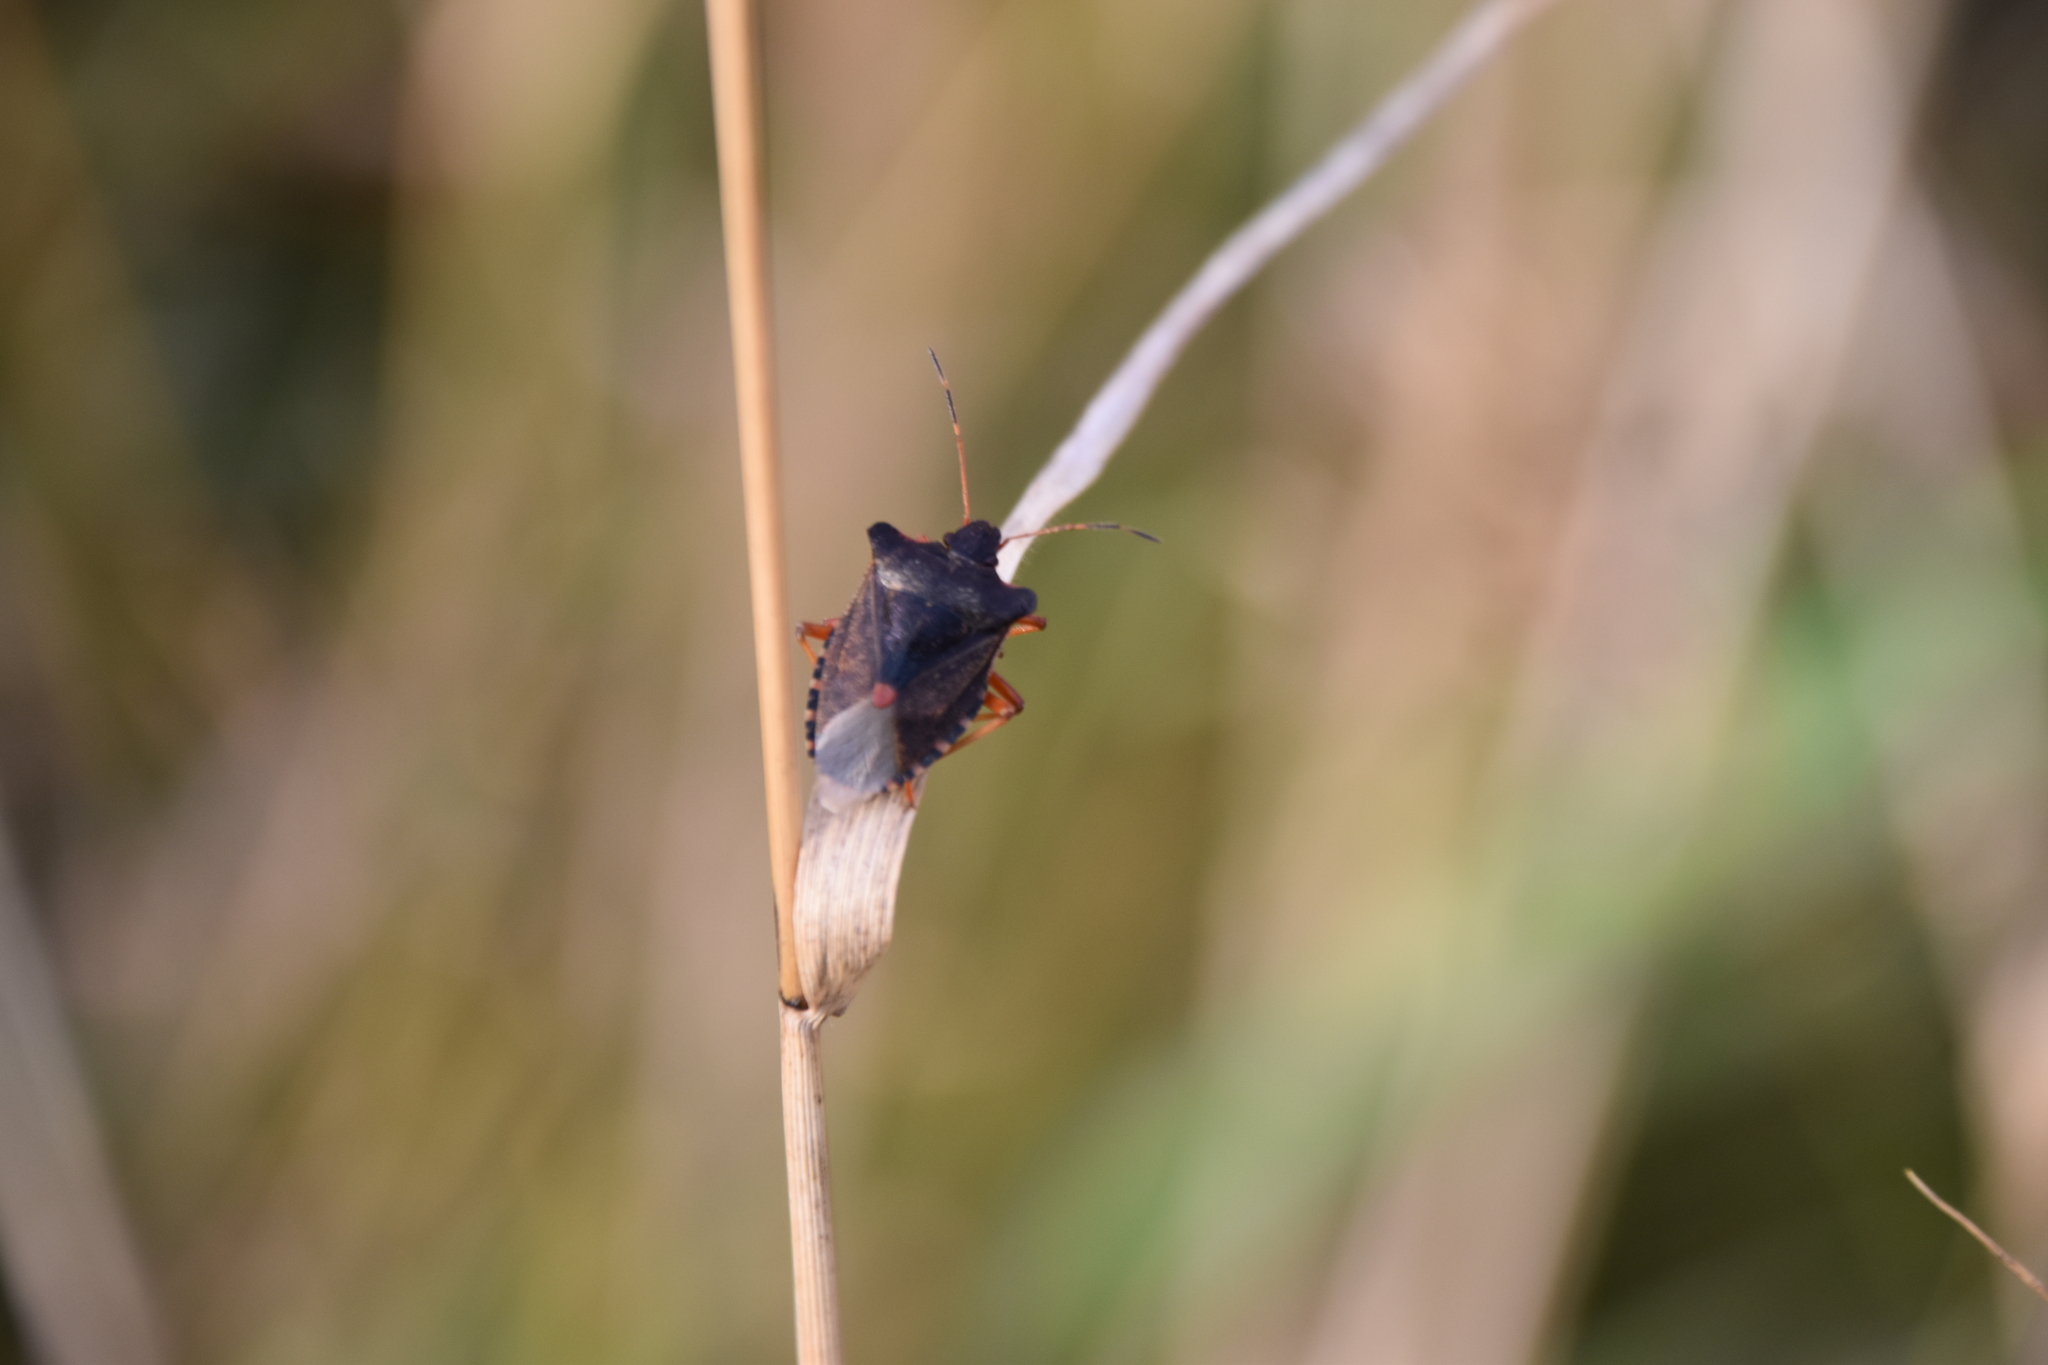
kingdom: Animalia
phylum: Arthropoda
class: Insecta
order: Hemiptera
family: Pentatomidae
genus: Pentatoma
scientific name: Pentatoma rufipes
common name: Forest bug
